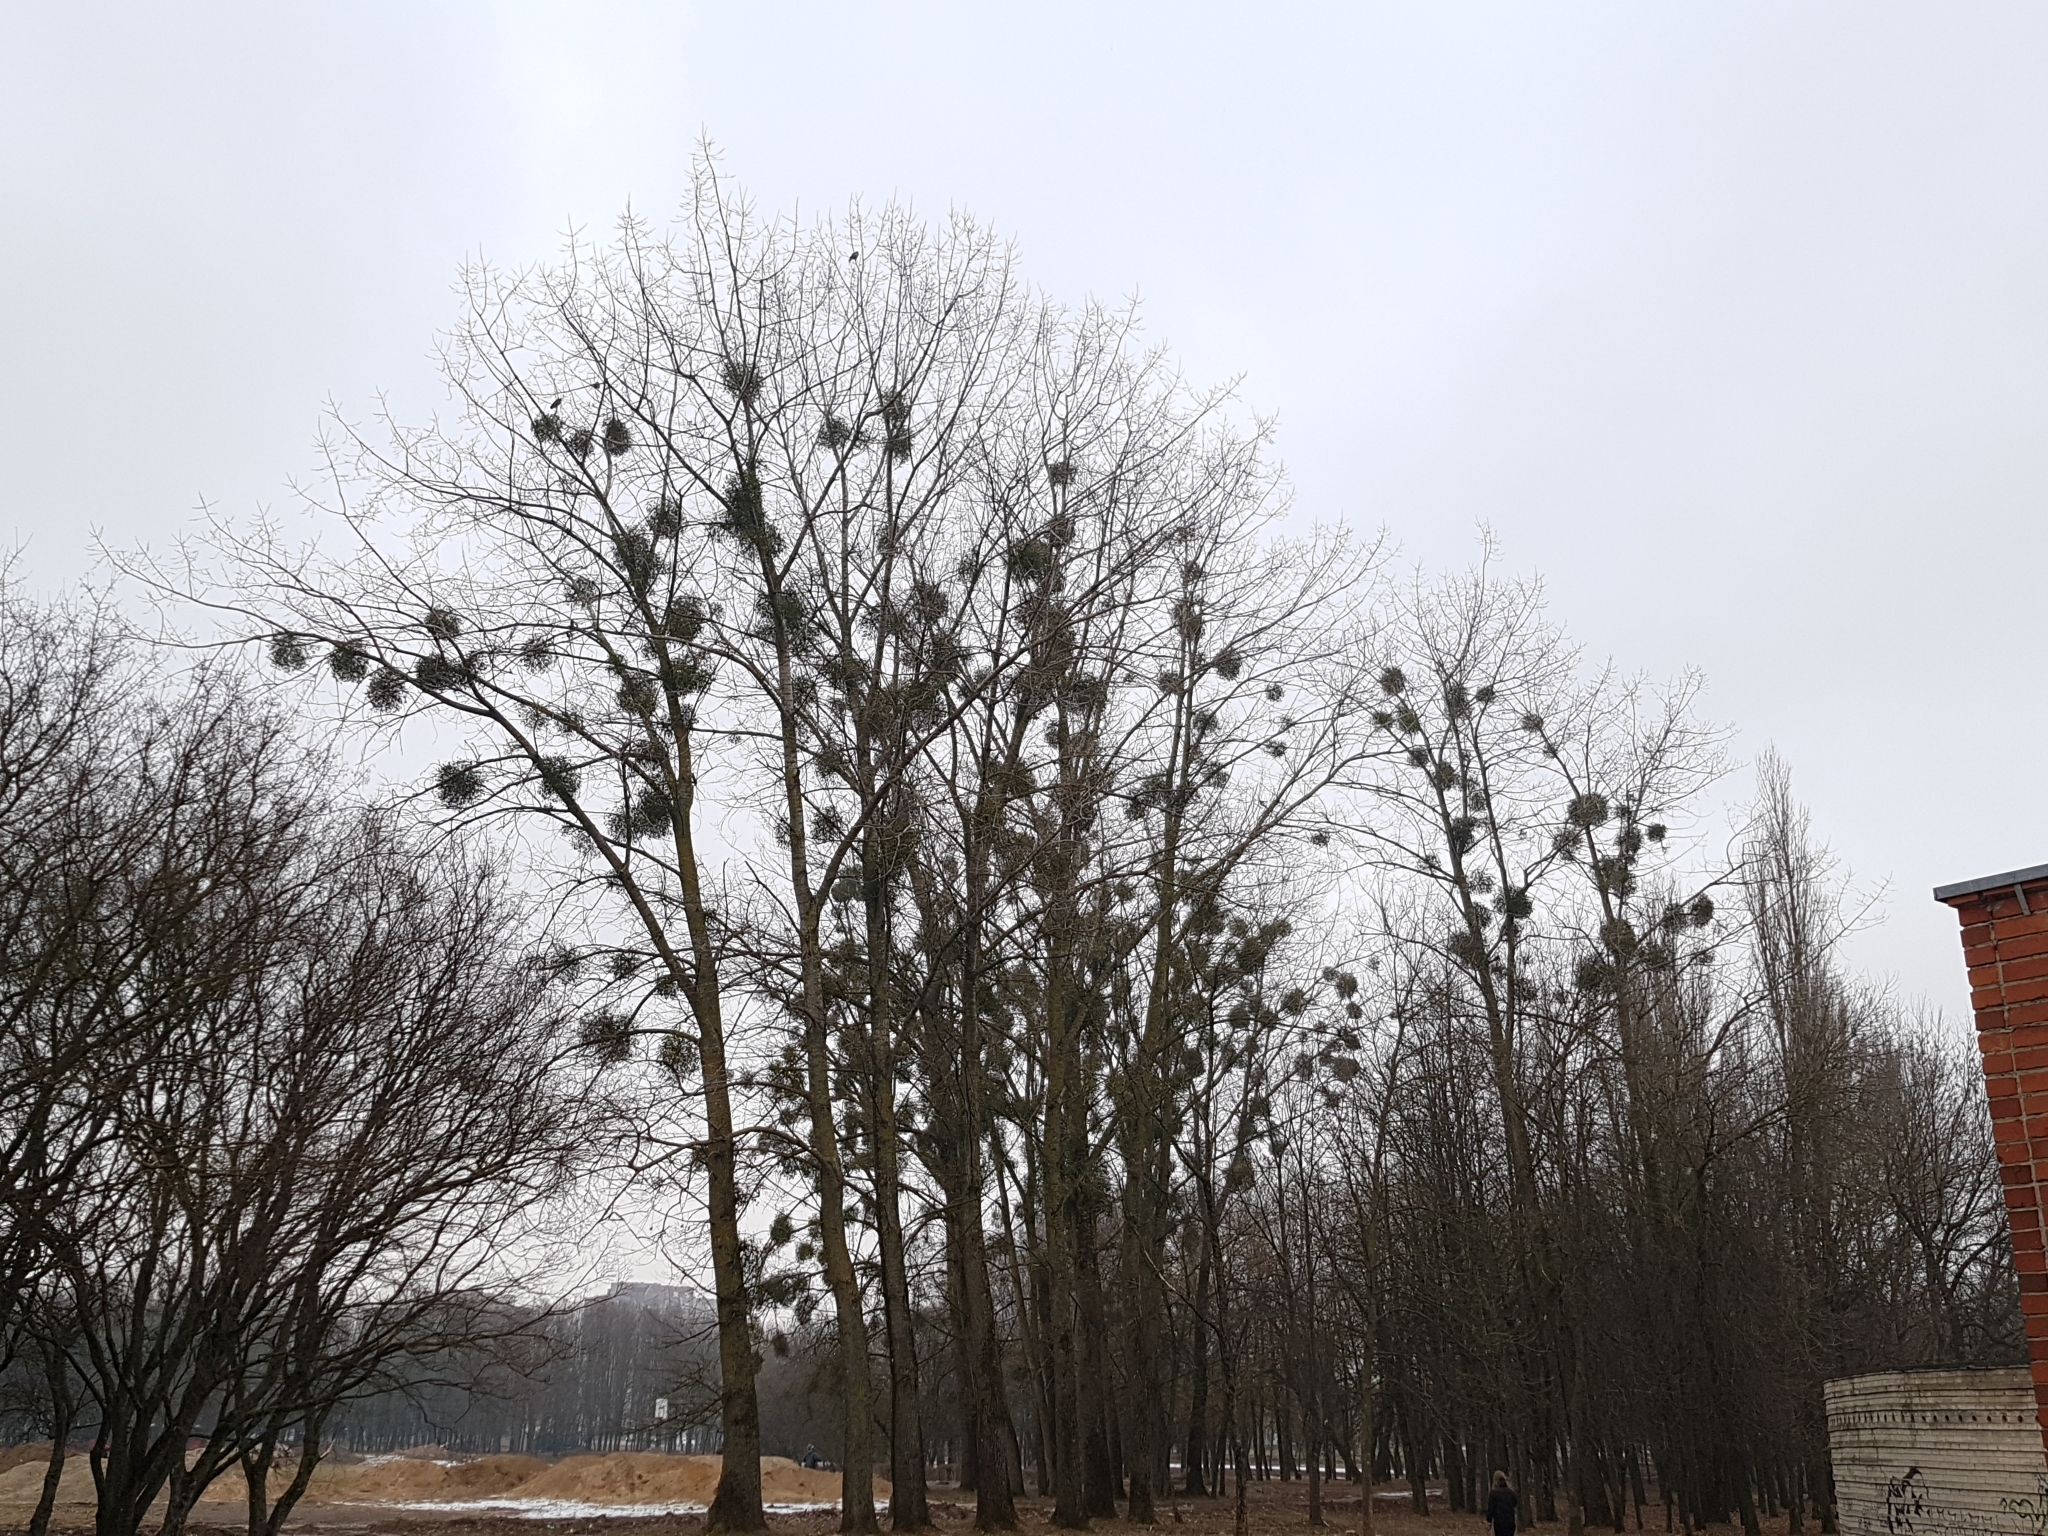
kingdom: Plantae
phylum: Tracheophyta
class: Magnoliopsida
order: Santalales
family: Viscaceae
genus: Viscum
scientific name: Viscum album
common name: Mistletoe
